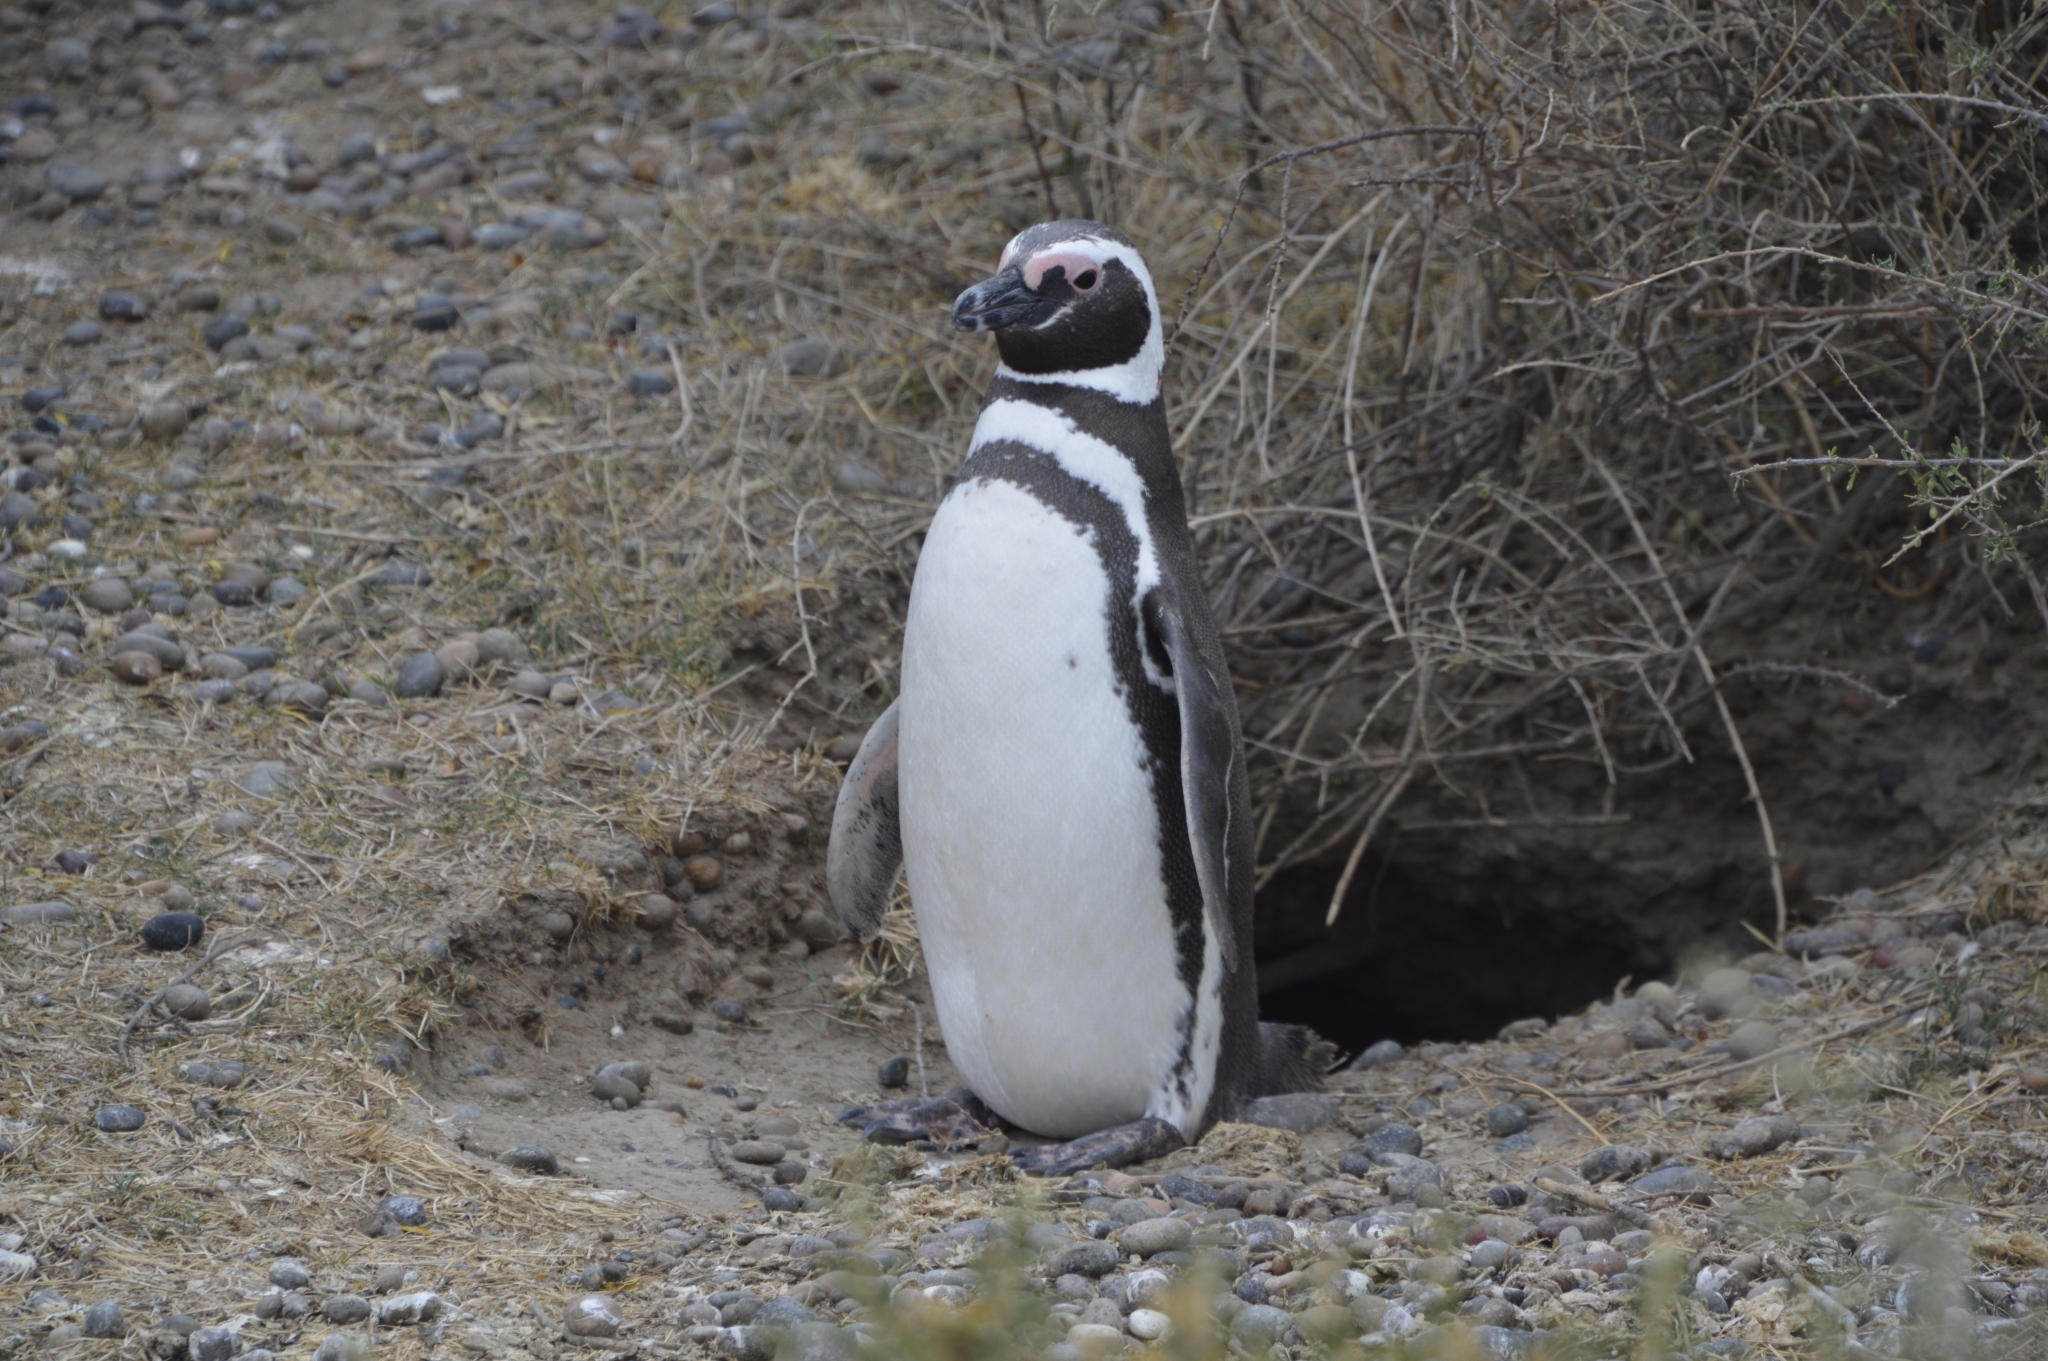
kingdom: Animalia
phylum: Chordata
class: Aves
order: Sphenisciformes
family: Spheniscidae
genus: Spheniscus
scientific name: Spheniscus magellanicus
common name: Magellanic penguin
